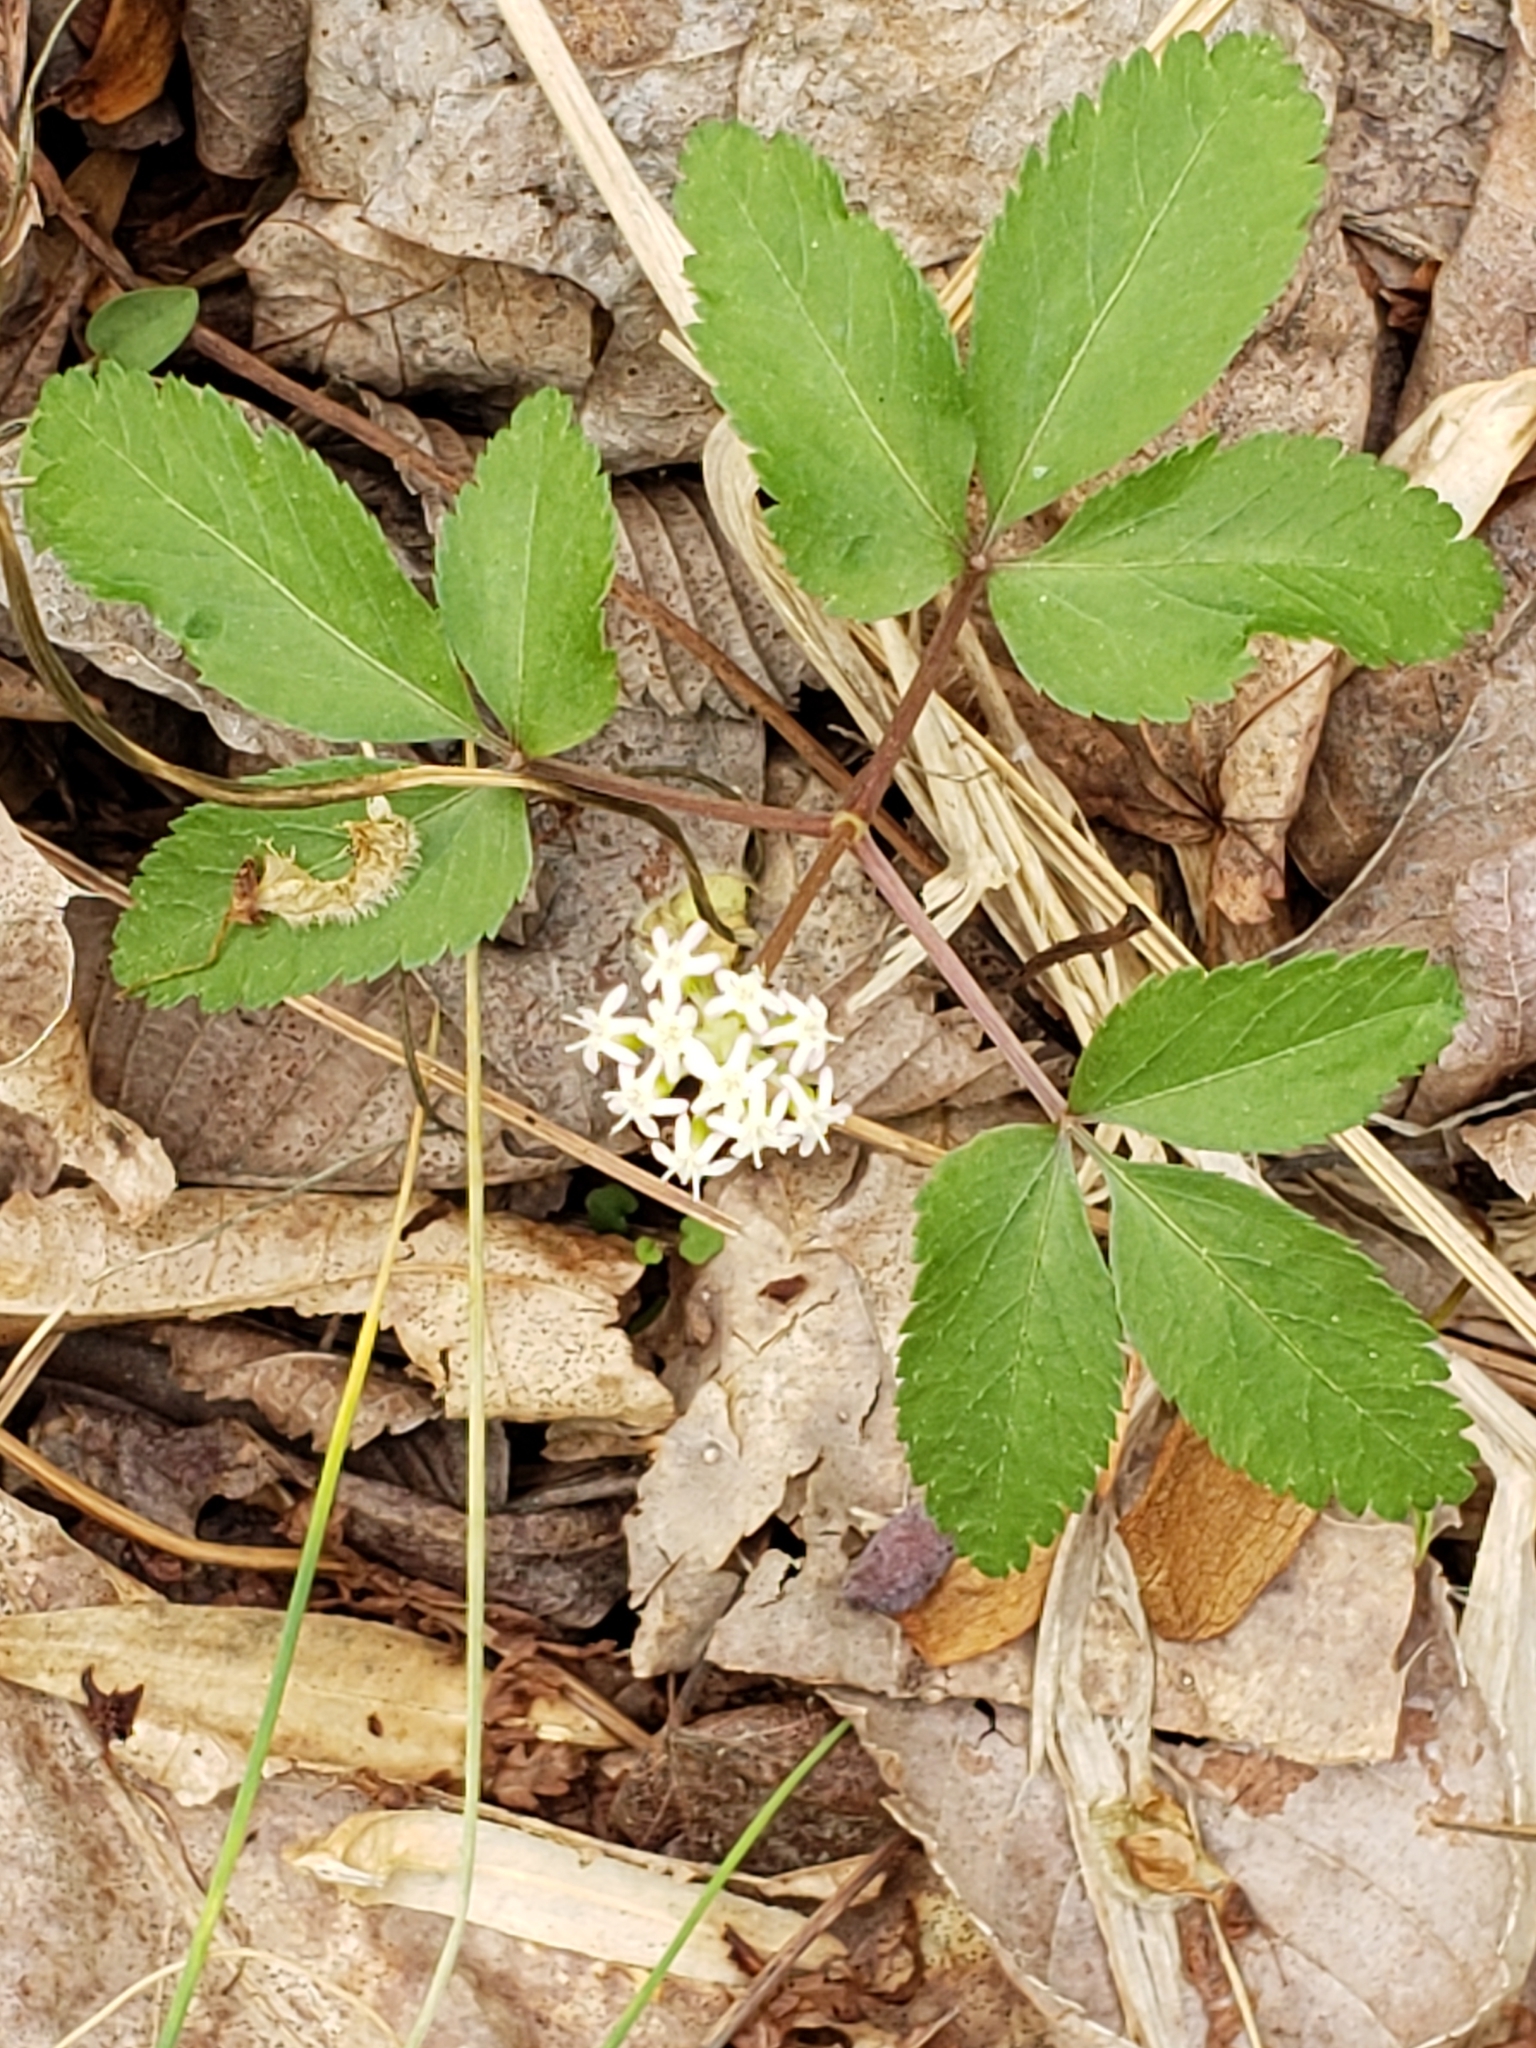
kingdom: Plantae
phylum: Tracheophyta
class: Magnoliopsida
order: Apiales
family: Araliaceae
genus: Panax
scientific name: Panax trifolius
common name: Dwarf ginseng
